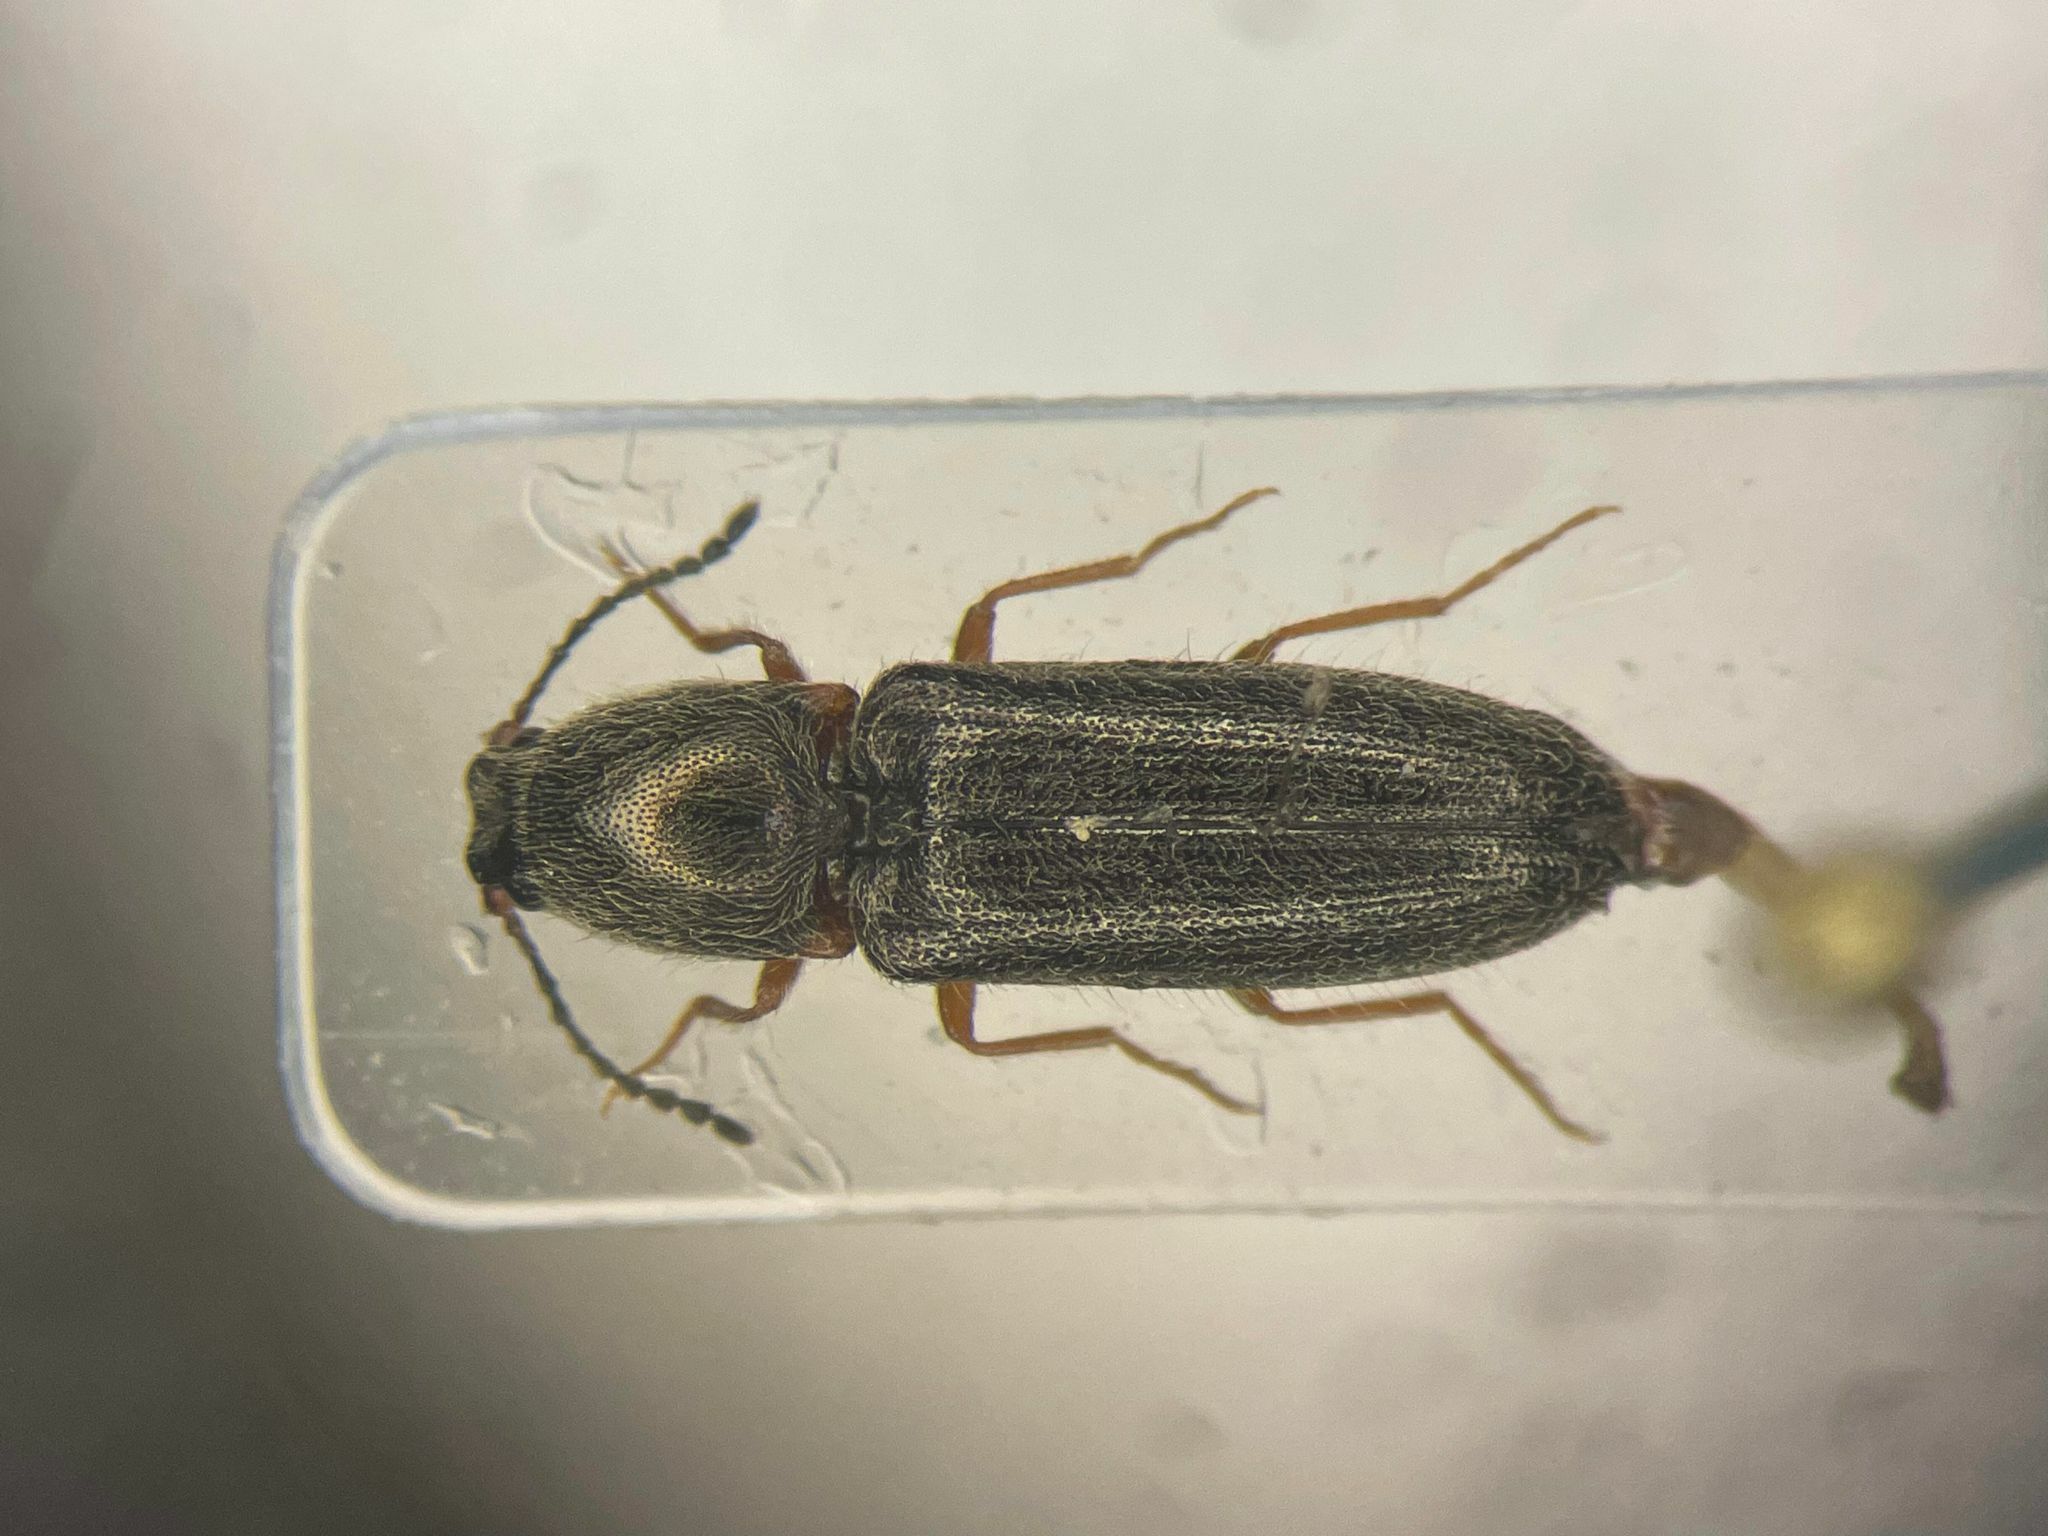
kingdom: Animalia
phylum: Arthropoda
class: Insecta
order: Coleoptera
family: Elateridae
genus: Limonius
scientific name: Limonius basilaris
